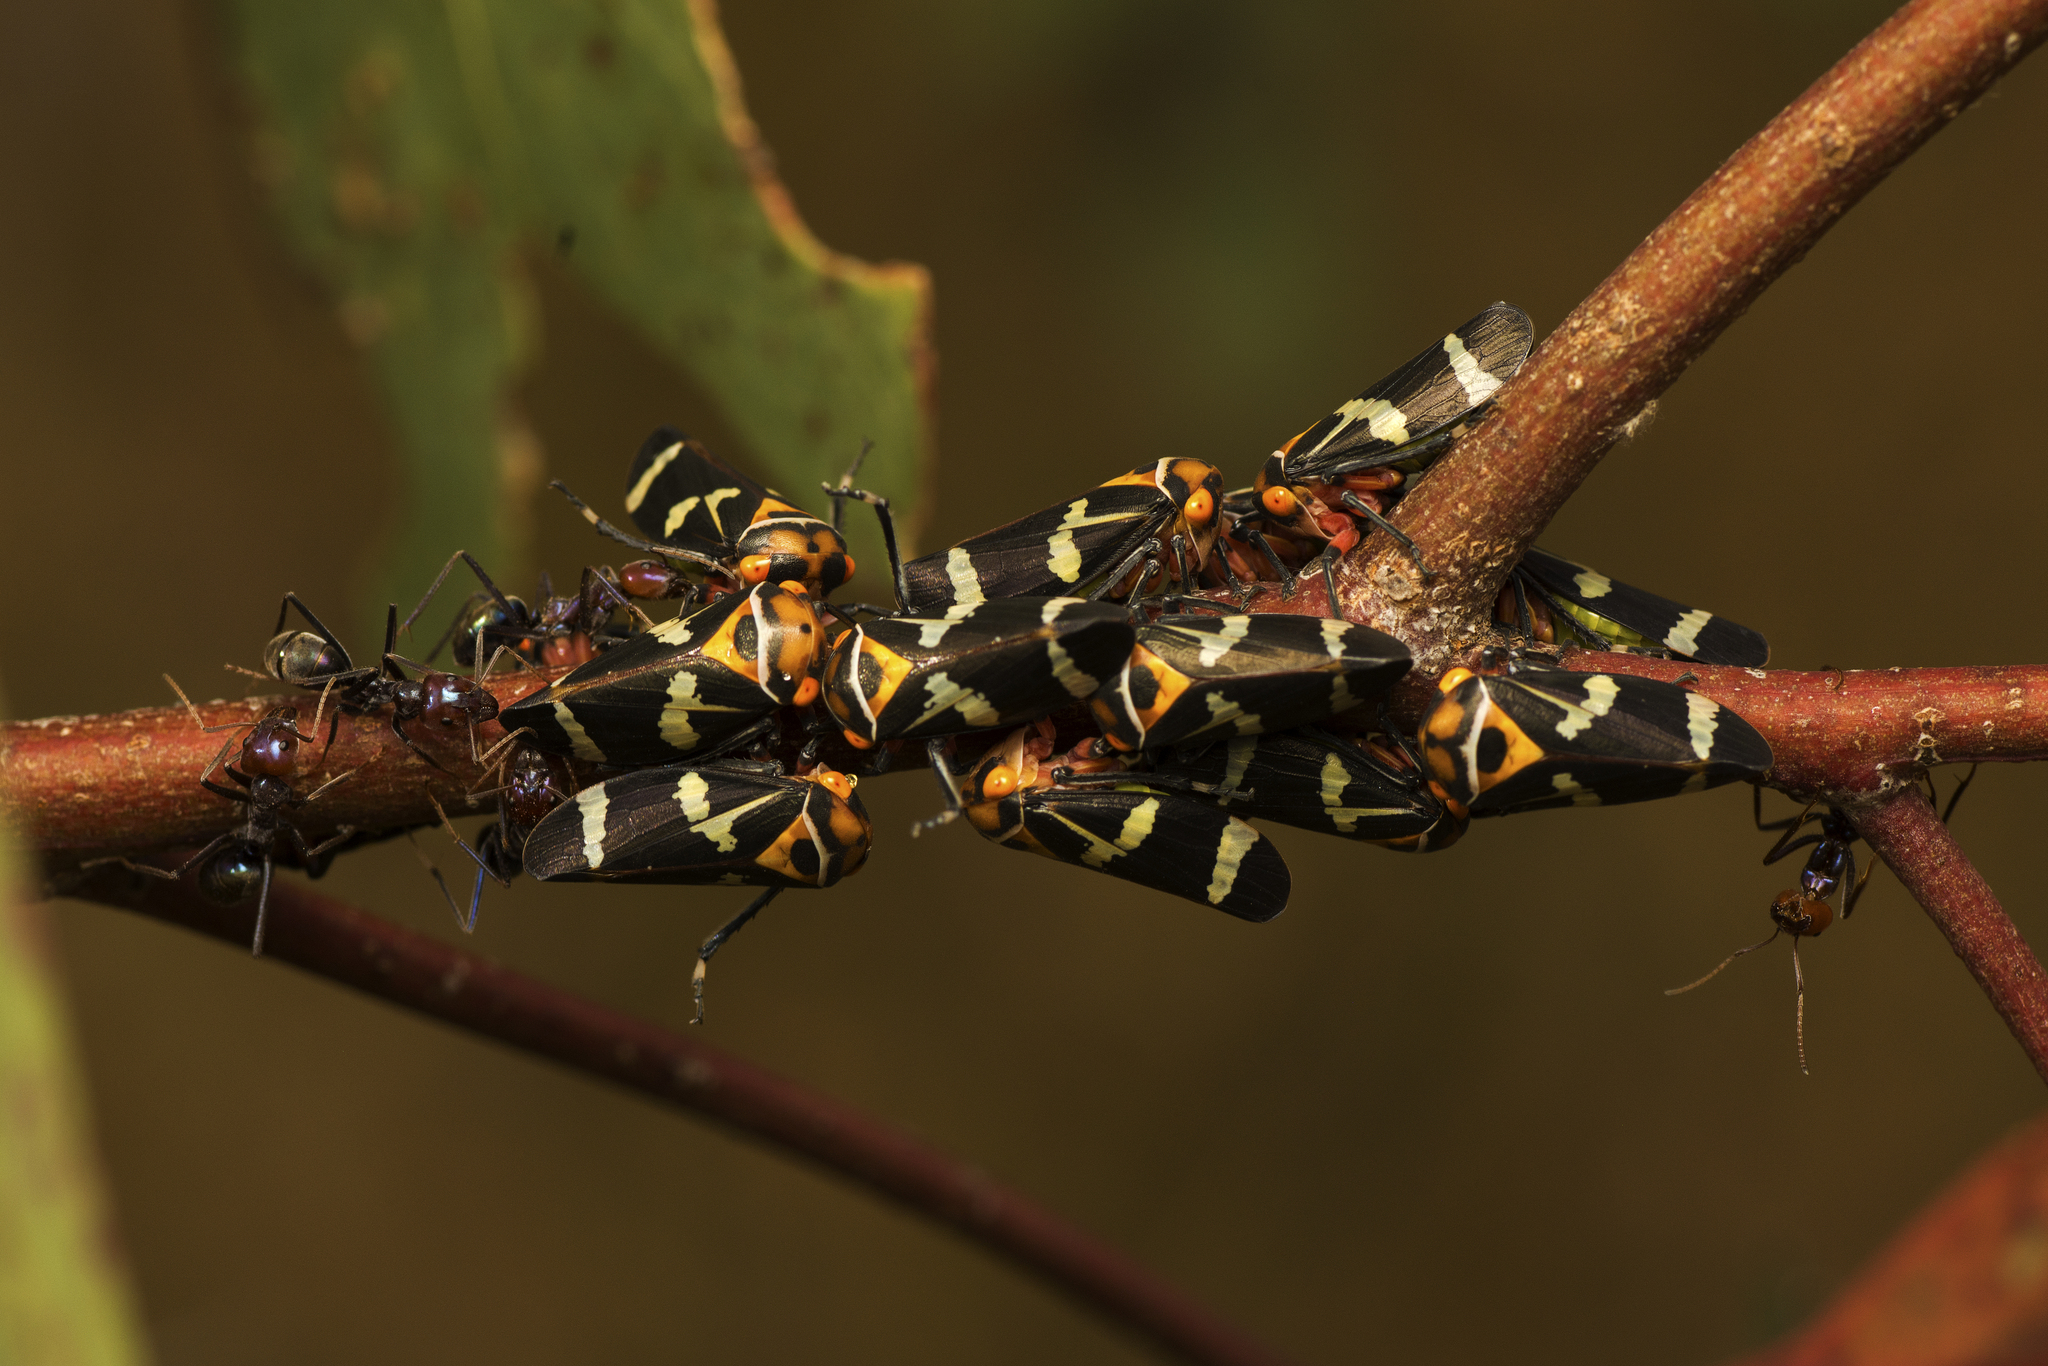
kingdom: Animalia
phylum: Arthropoda
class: Insecta
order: Hemiptera
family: Cicadellidae
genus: Eurymeloides
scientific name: Eurymeloides pulchra
